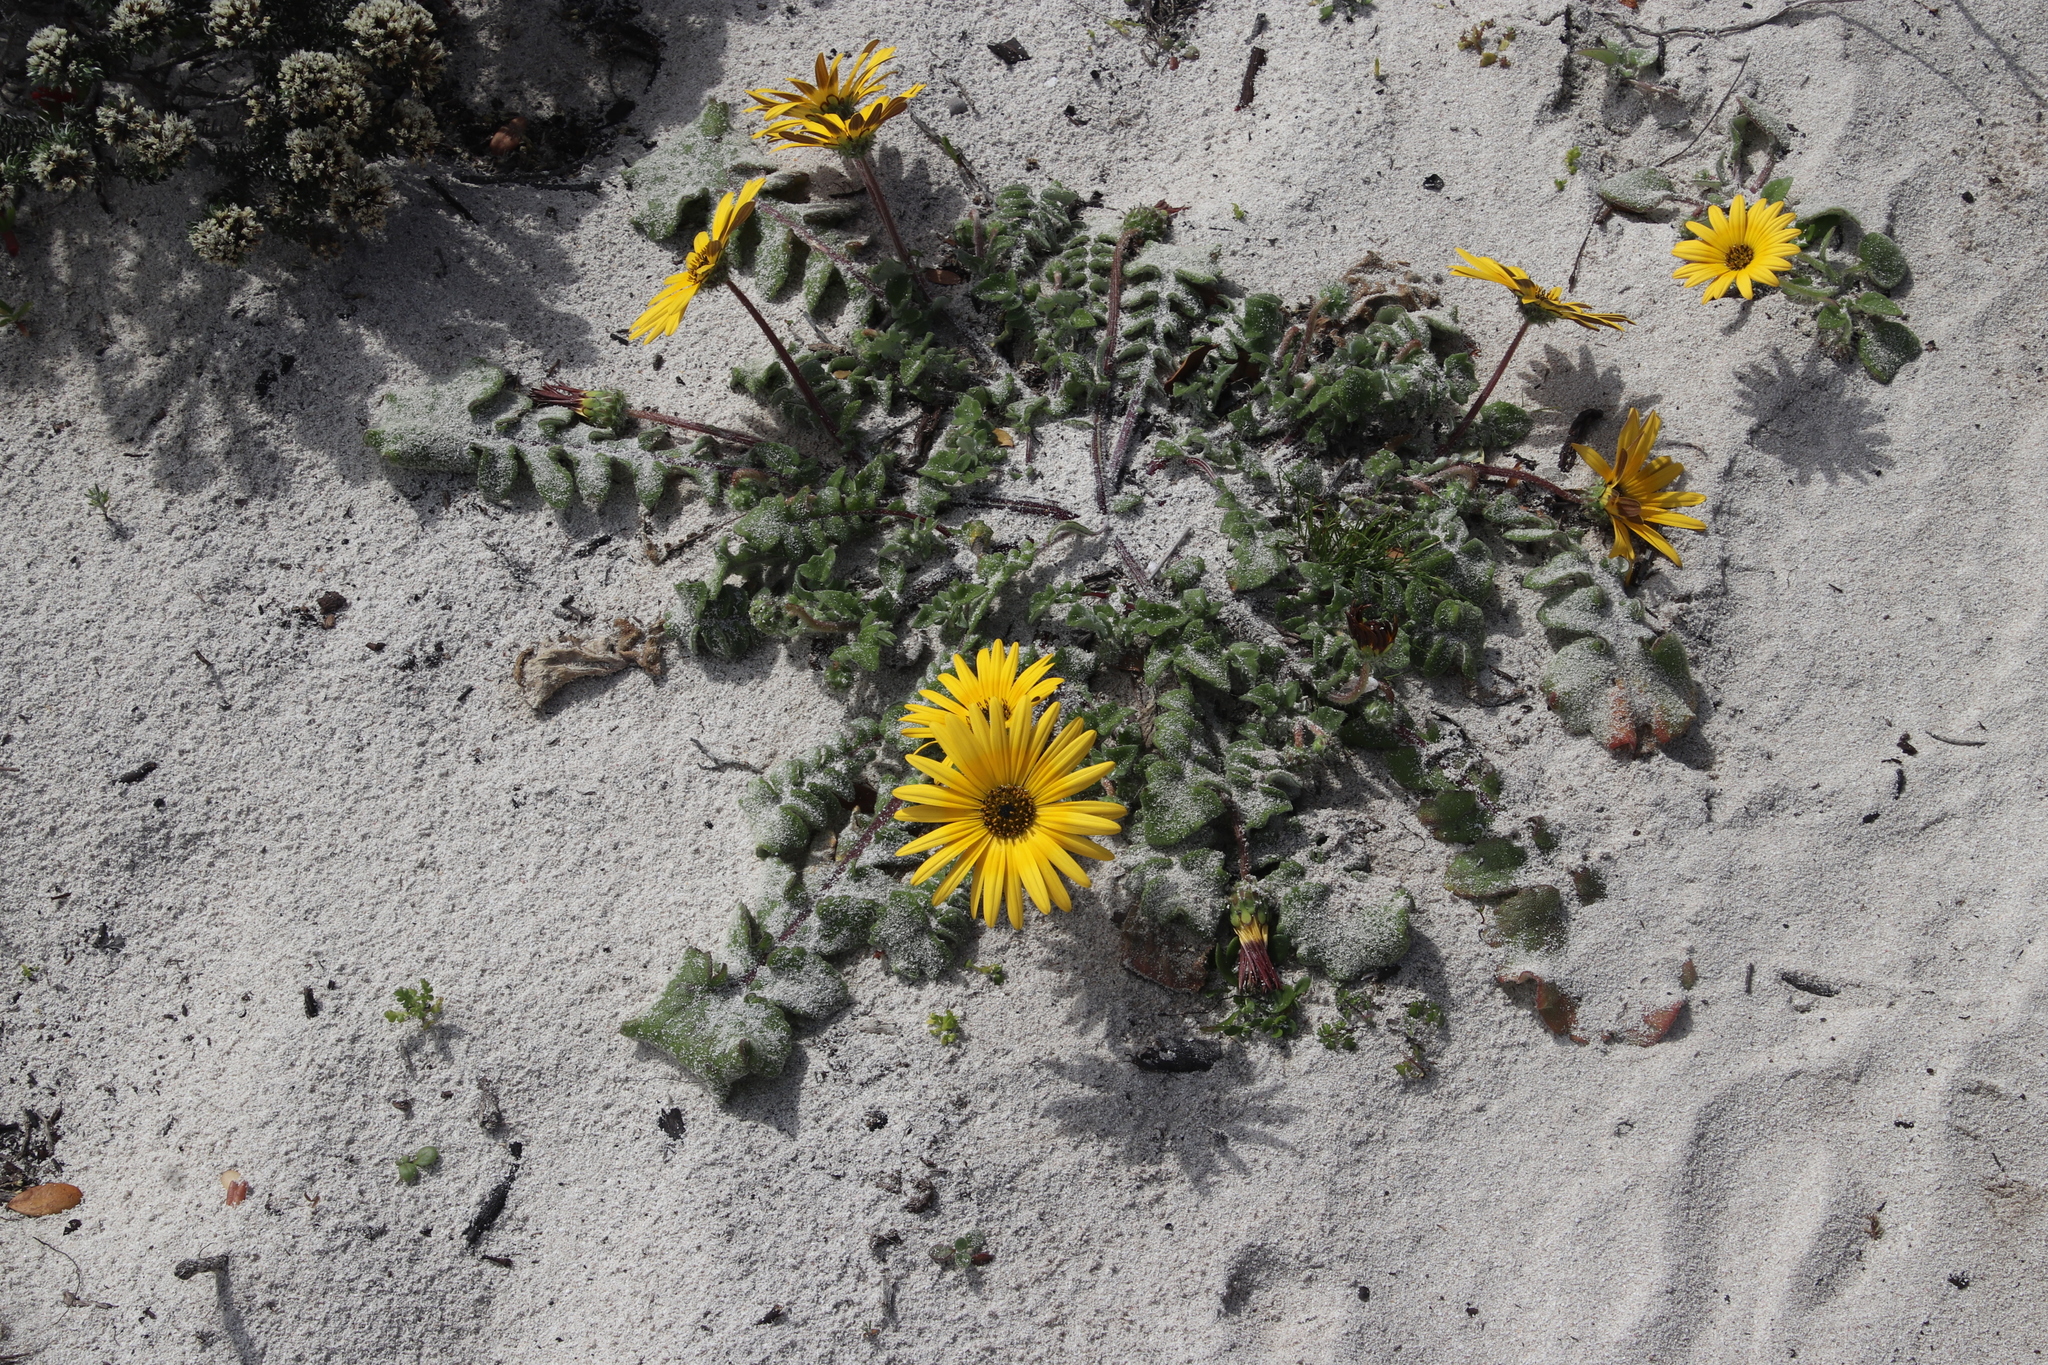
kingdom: Plantae
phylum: Tracheophyta
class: Magnoliopsida
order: Asterales
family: Asteraceae
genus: Arctotis
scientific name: Arctotis acaulis
